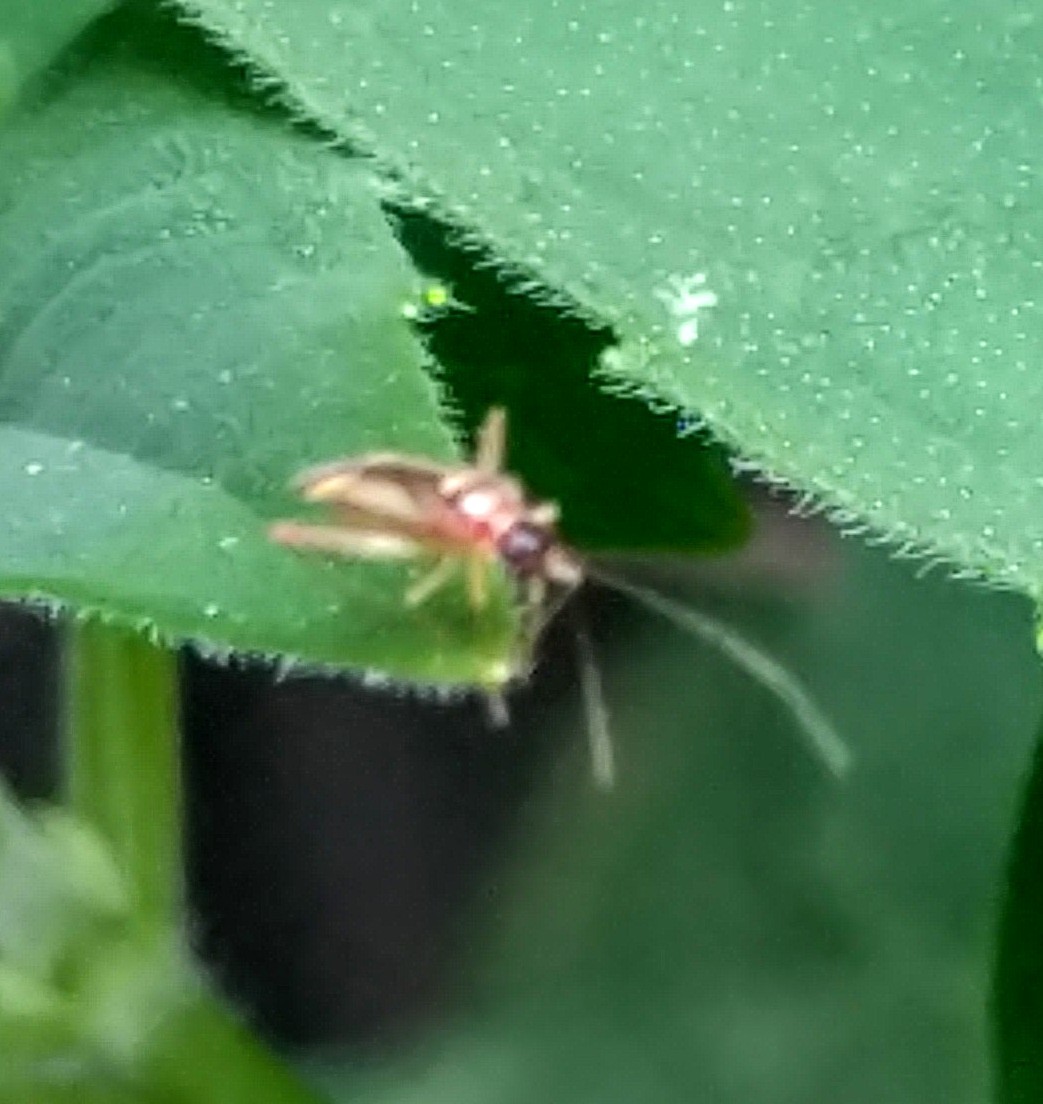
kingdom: Animalia
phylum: Arthropoda
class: Insecta
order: Hemiptera
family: Miridae
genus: Campyloneura
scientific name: Campyloneura virgula
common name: Predatory bug
